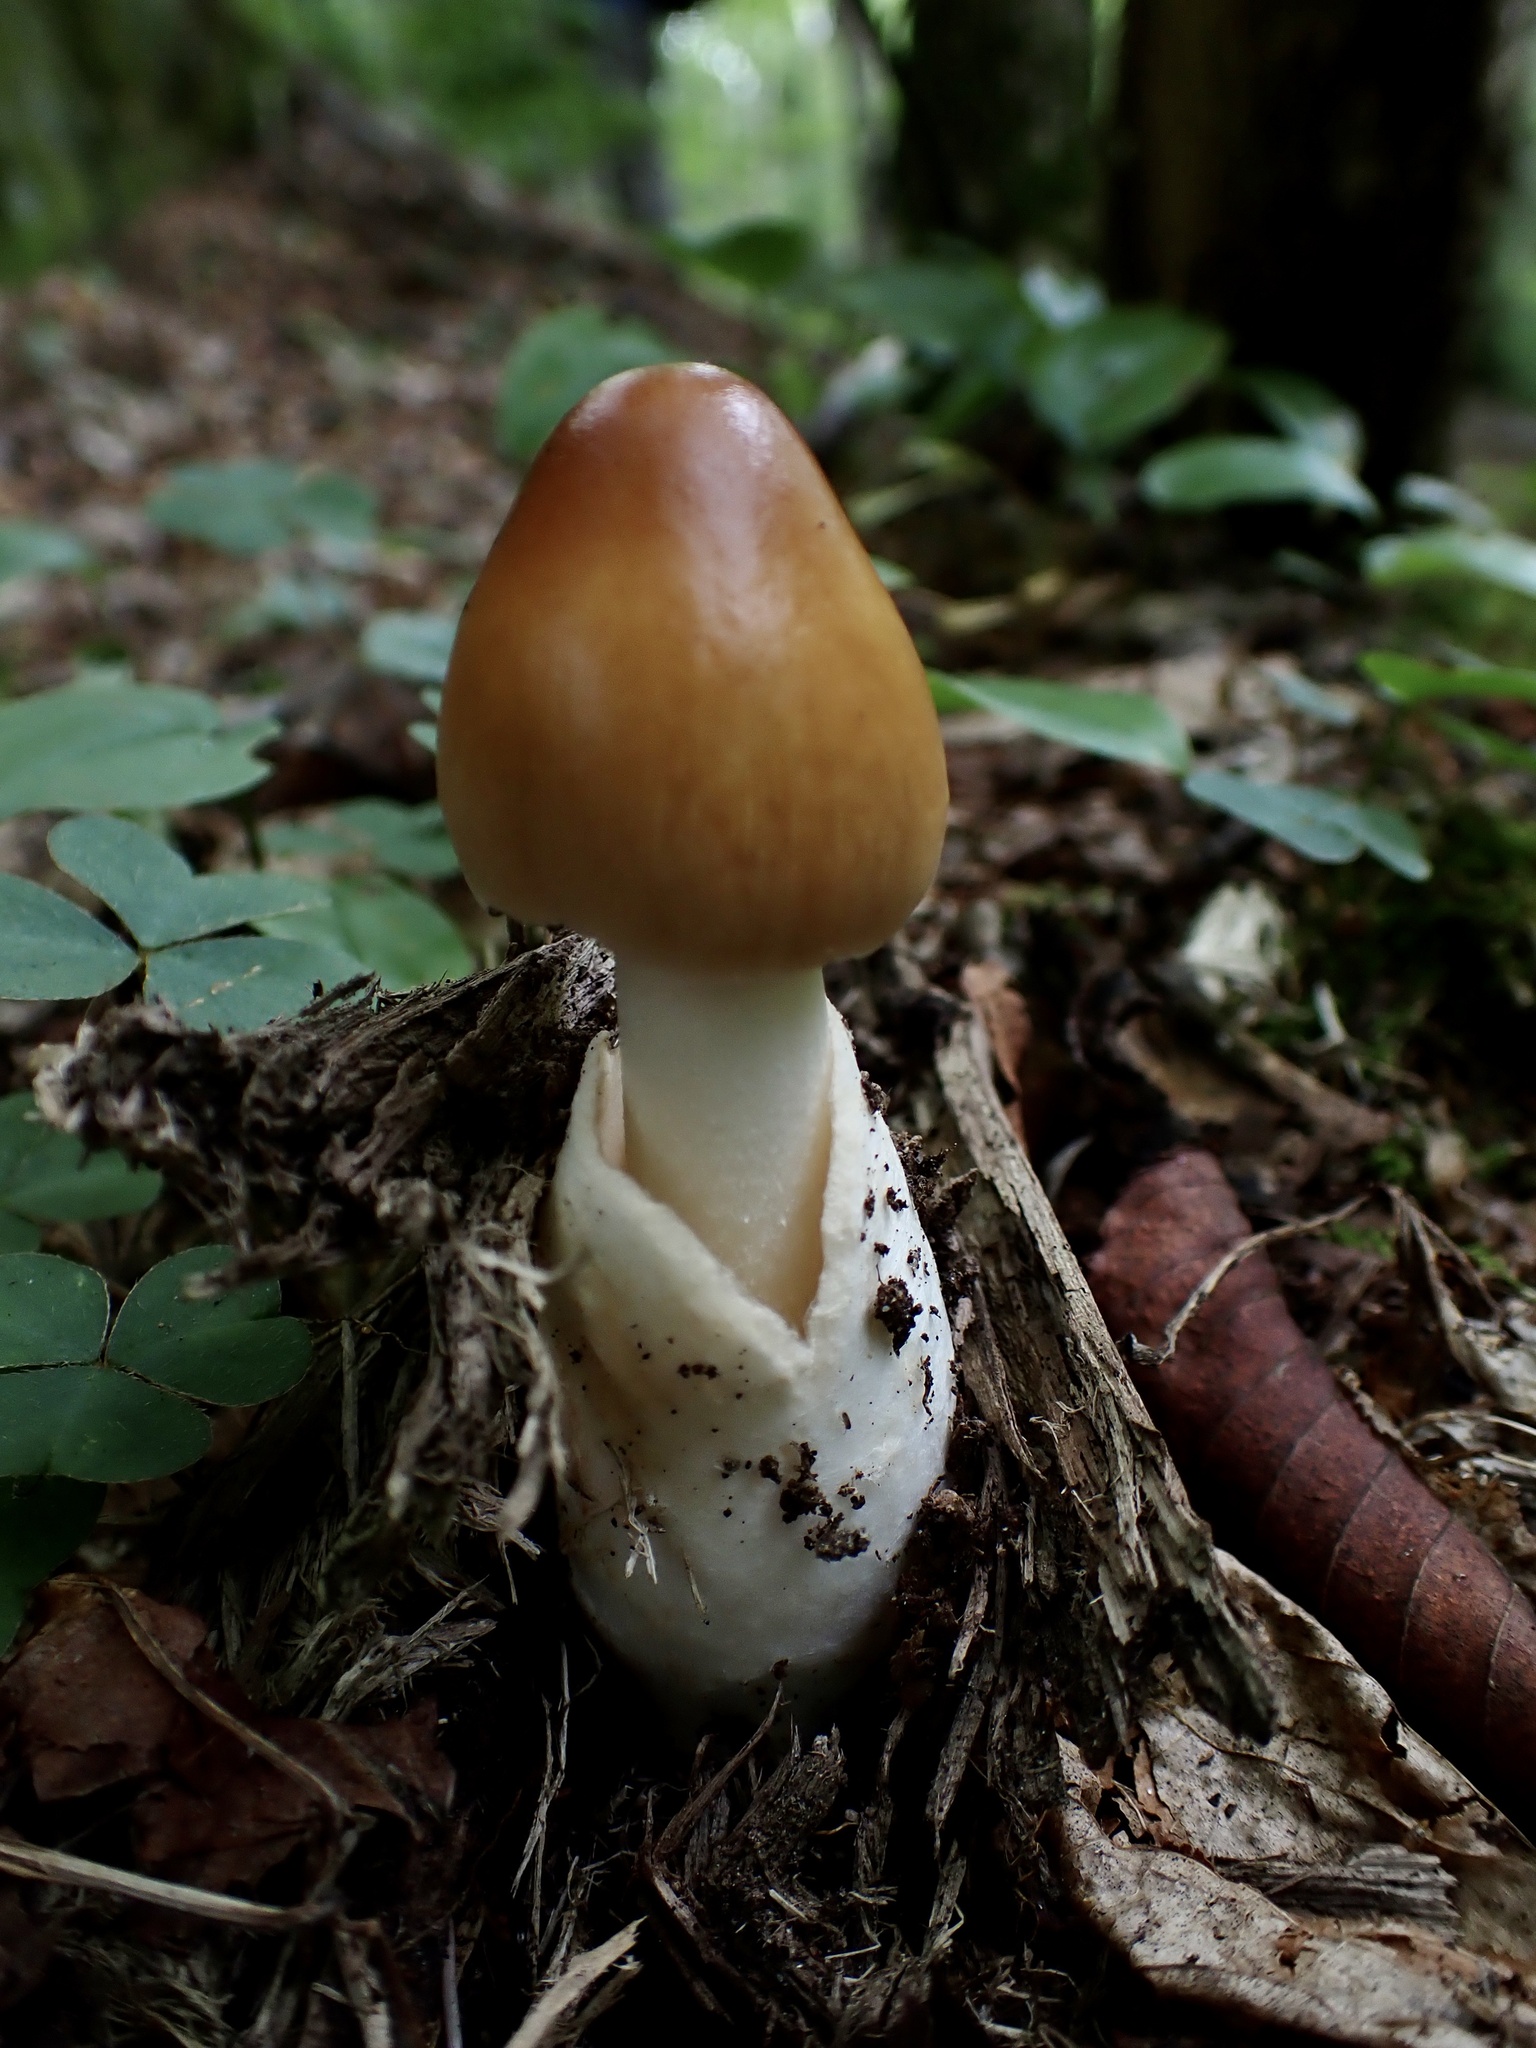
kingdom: Fungi
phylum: Basidiomycota
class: Agaricomycetes
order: Agaricales
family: Amanitaceae
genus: Amanita
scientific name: Amanita fulva
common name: Tawny grisette
